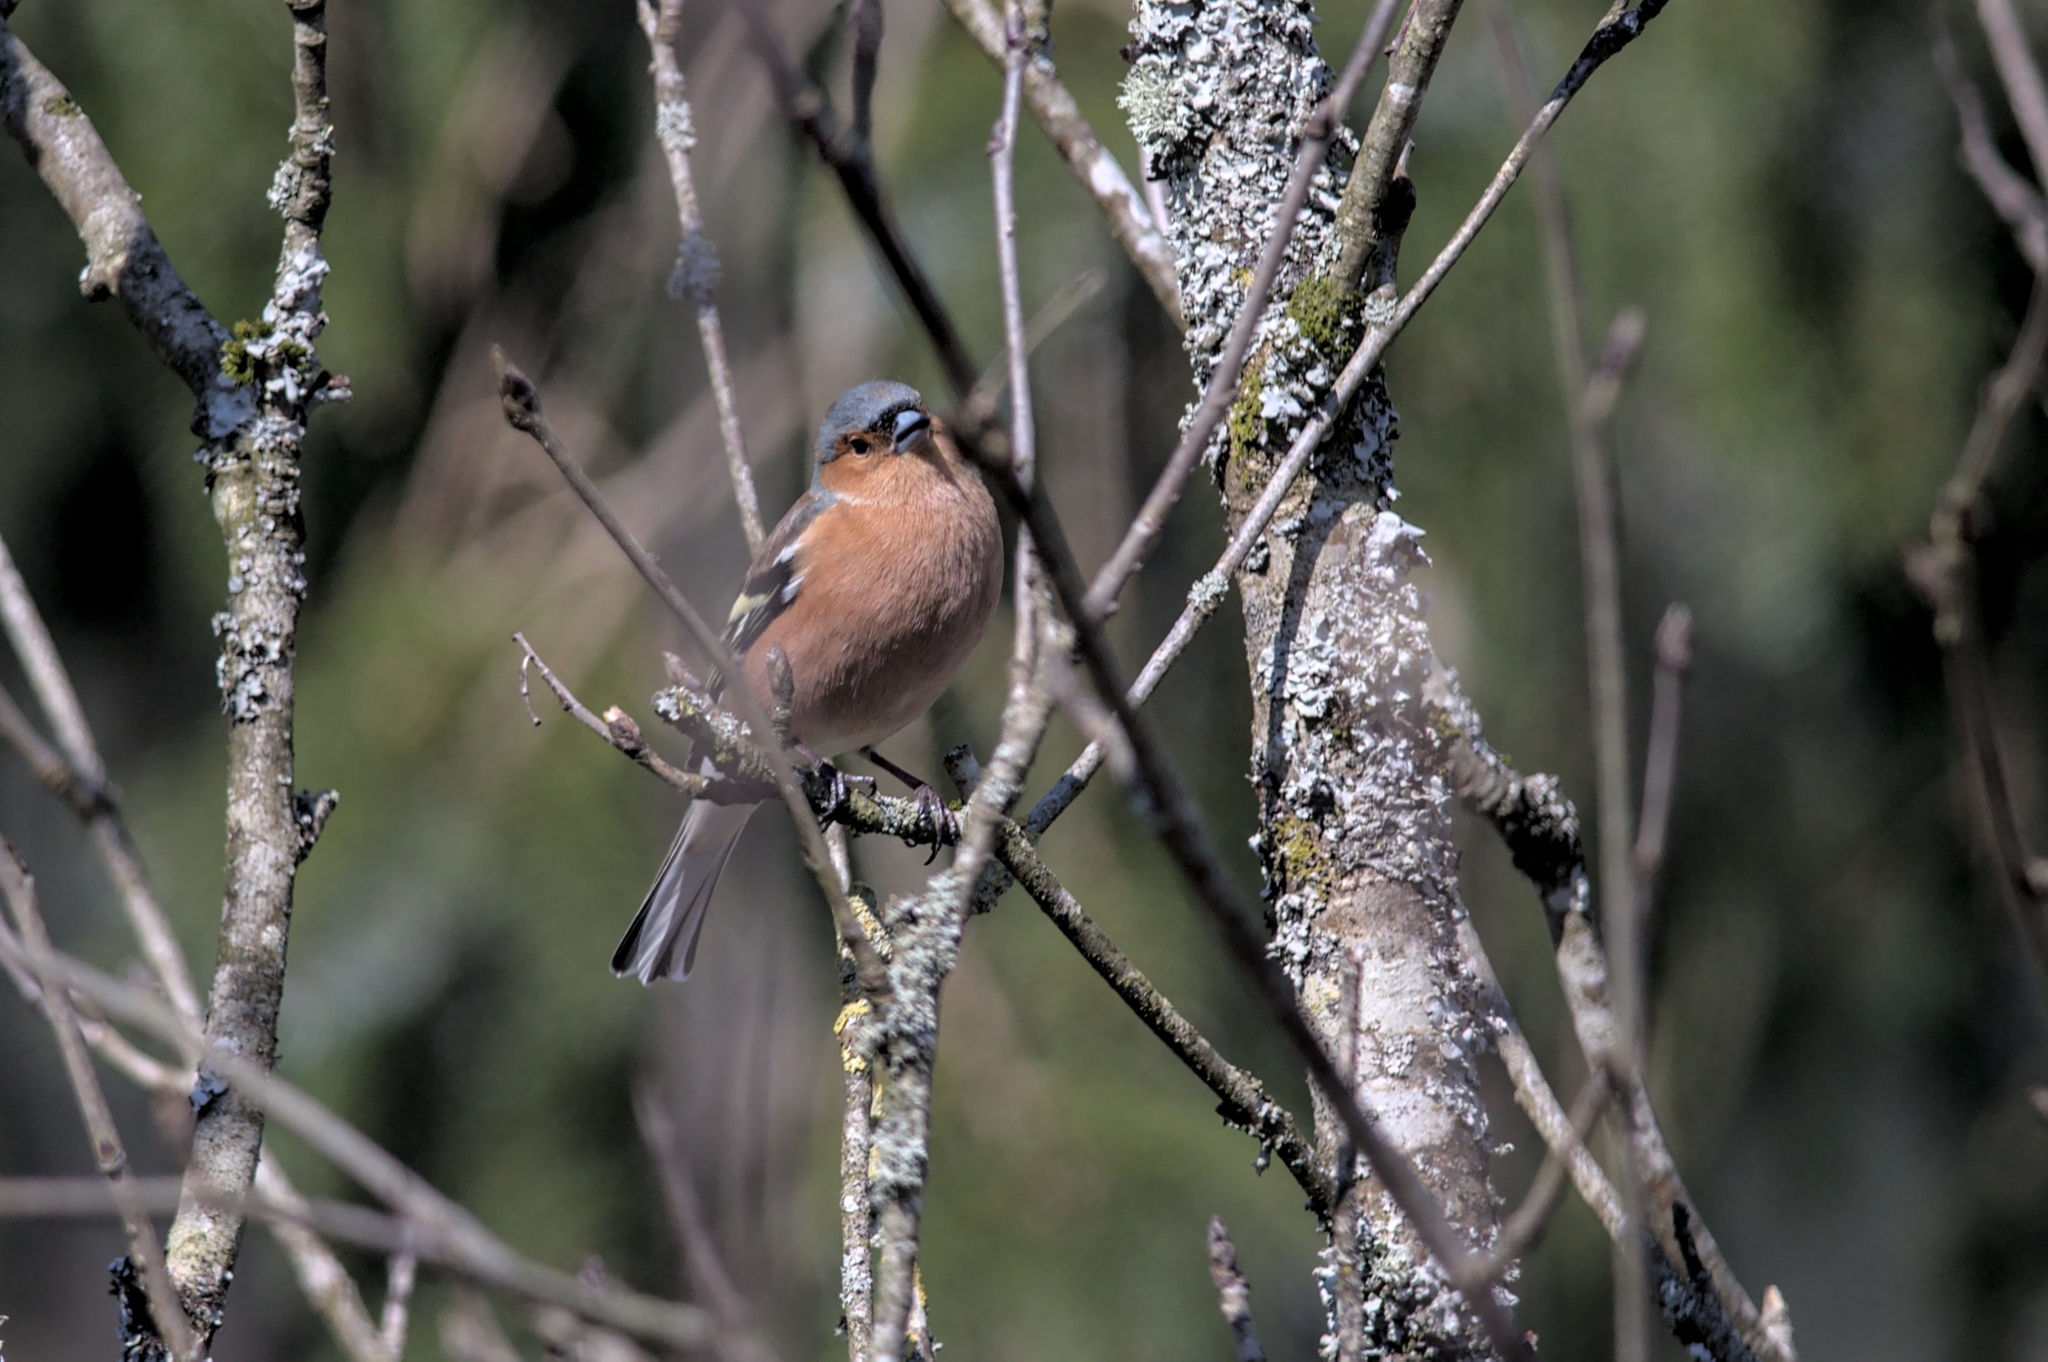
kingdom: Animalia
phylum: Chordata
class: Aves
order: Passeriformes
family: Fringillidae
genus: Fringilla
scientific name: Fringilla coelebs
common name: Common chaffinch
